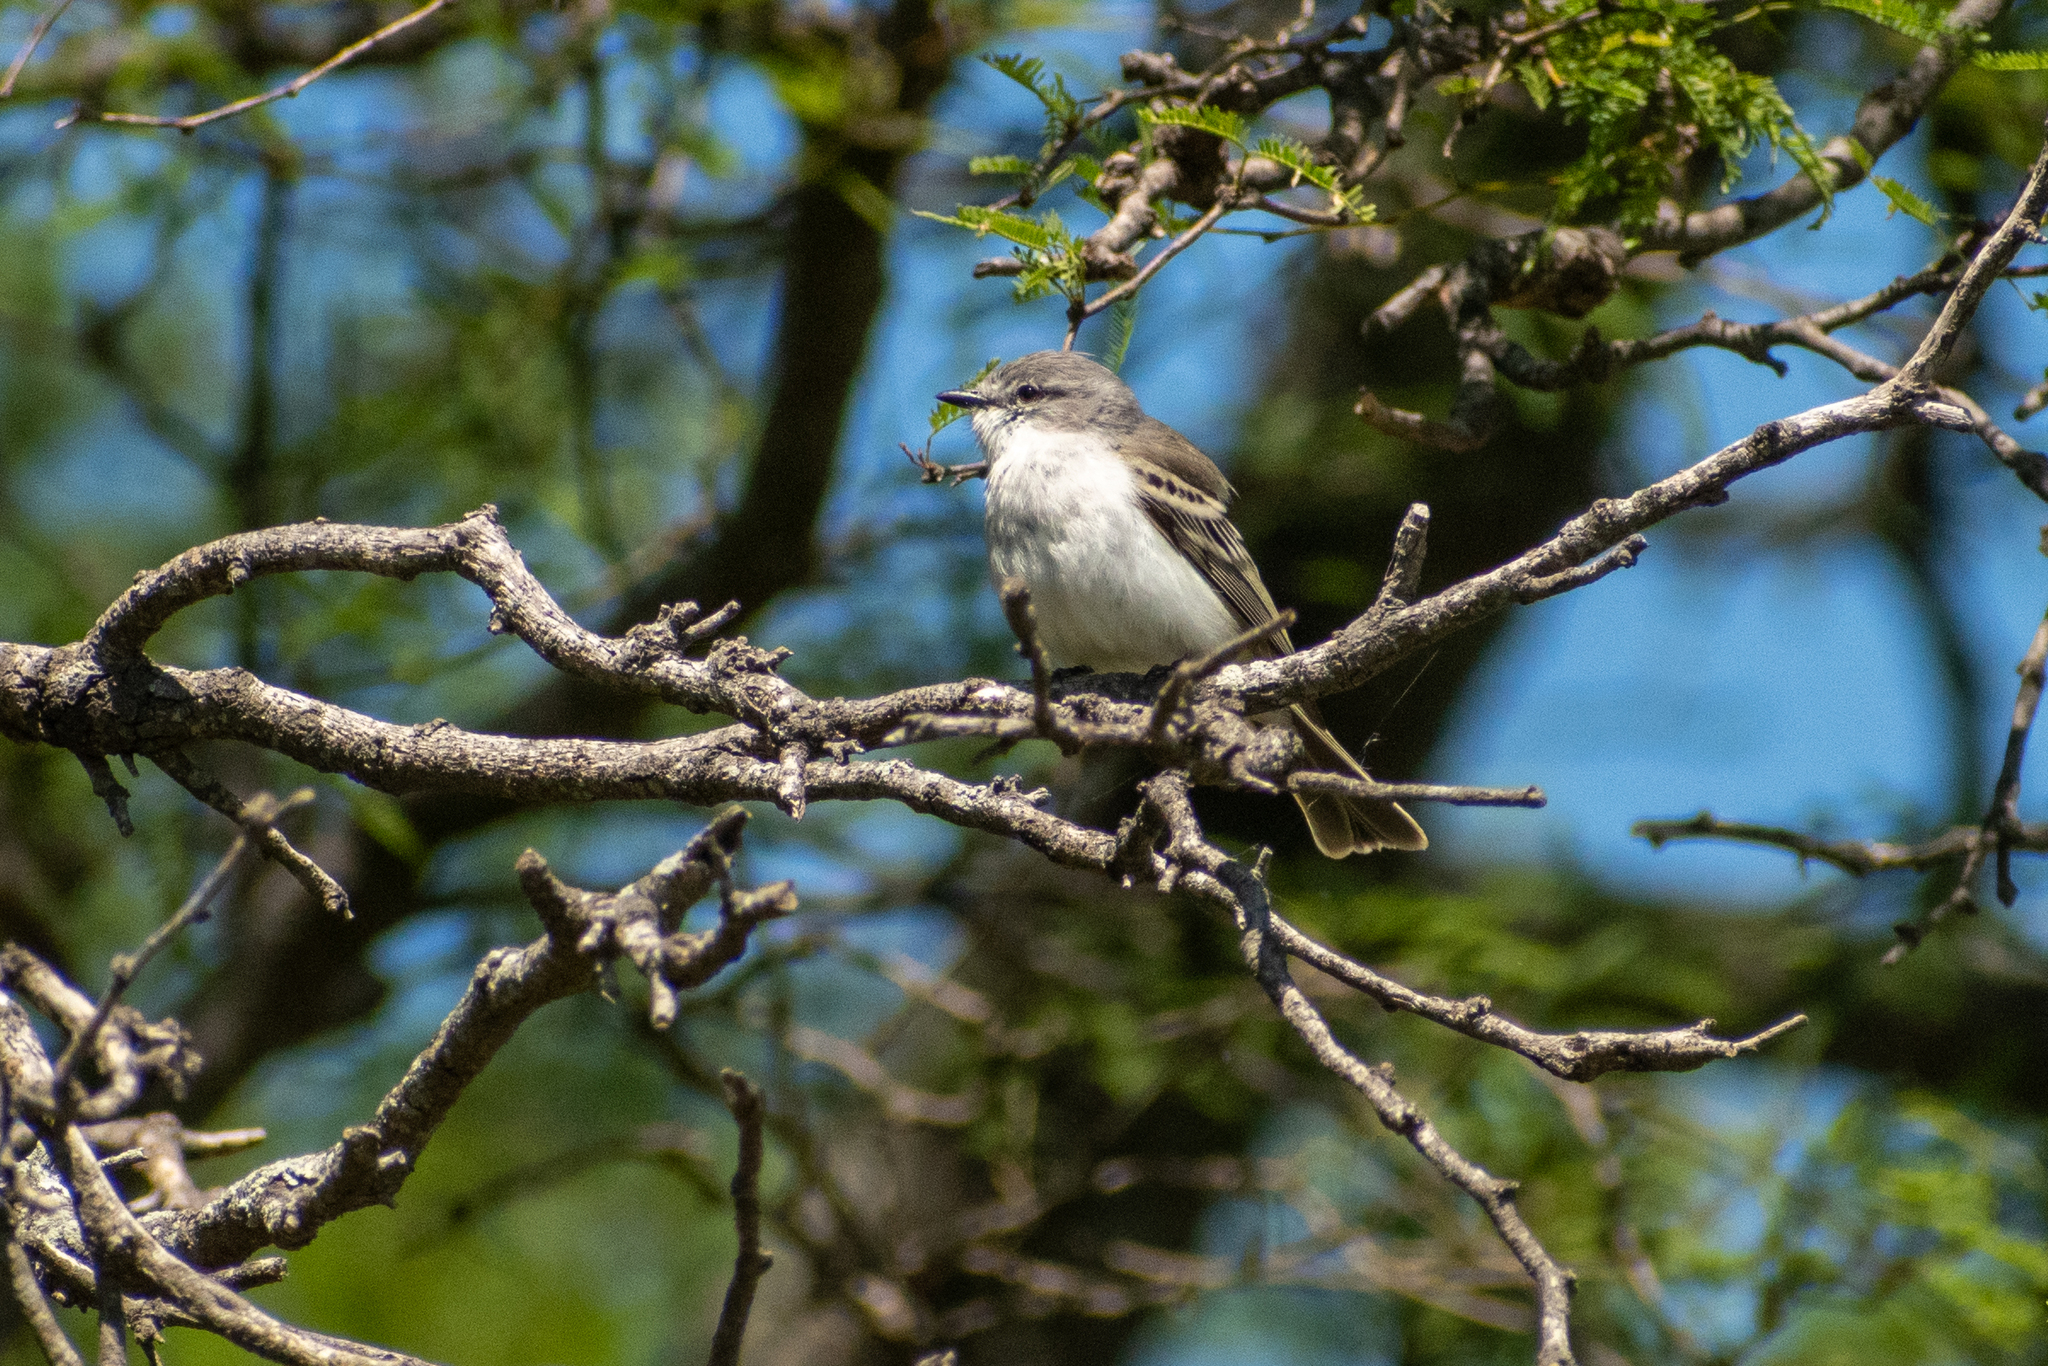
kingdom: Animalia
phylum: Chordata
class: Aves
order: Passeriformes
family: Tyrannidae
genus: Suiriri
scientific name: Suiriri suiriri
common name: Suiriri flycatcher
